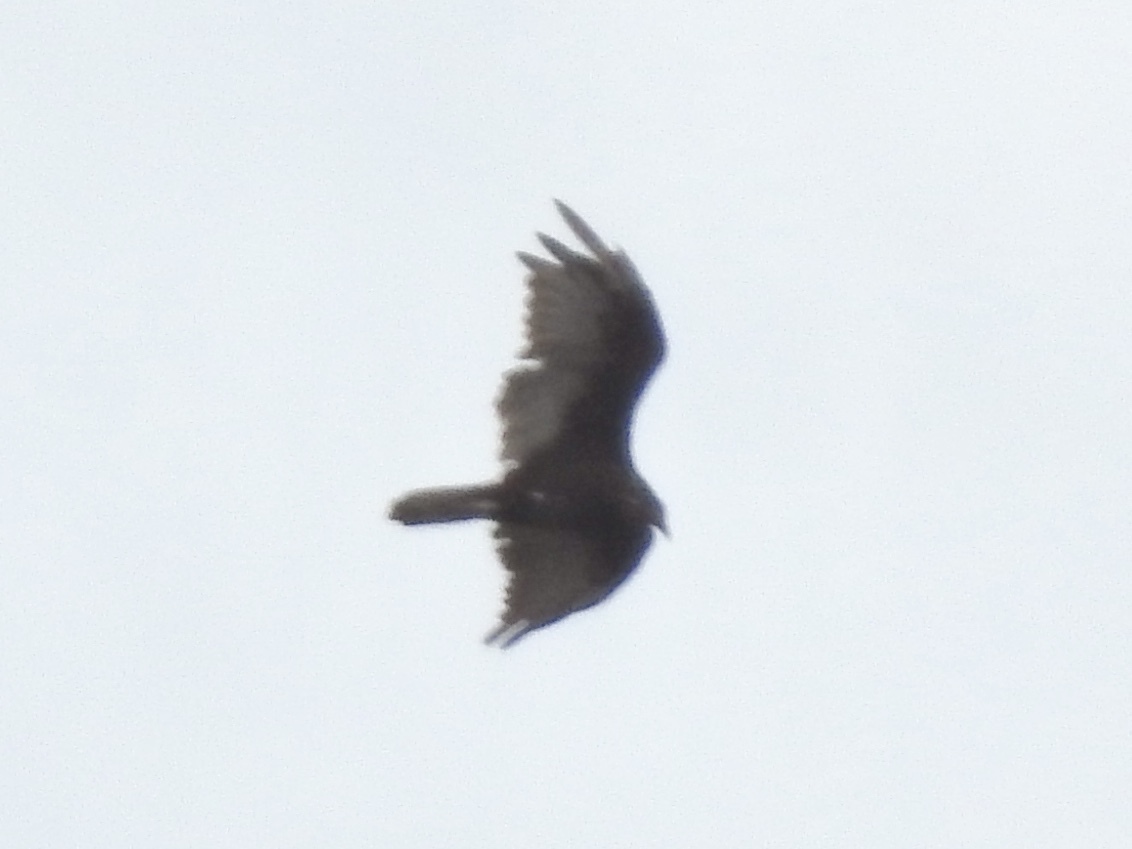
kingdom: Animalia
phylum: Chordata
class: Aves
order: Accipitriformes
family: Cathartidae
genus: Cathartes
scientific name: Cathartes aura
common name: Turkey vulture
